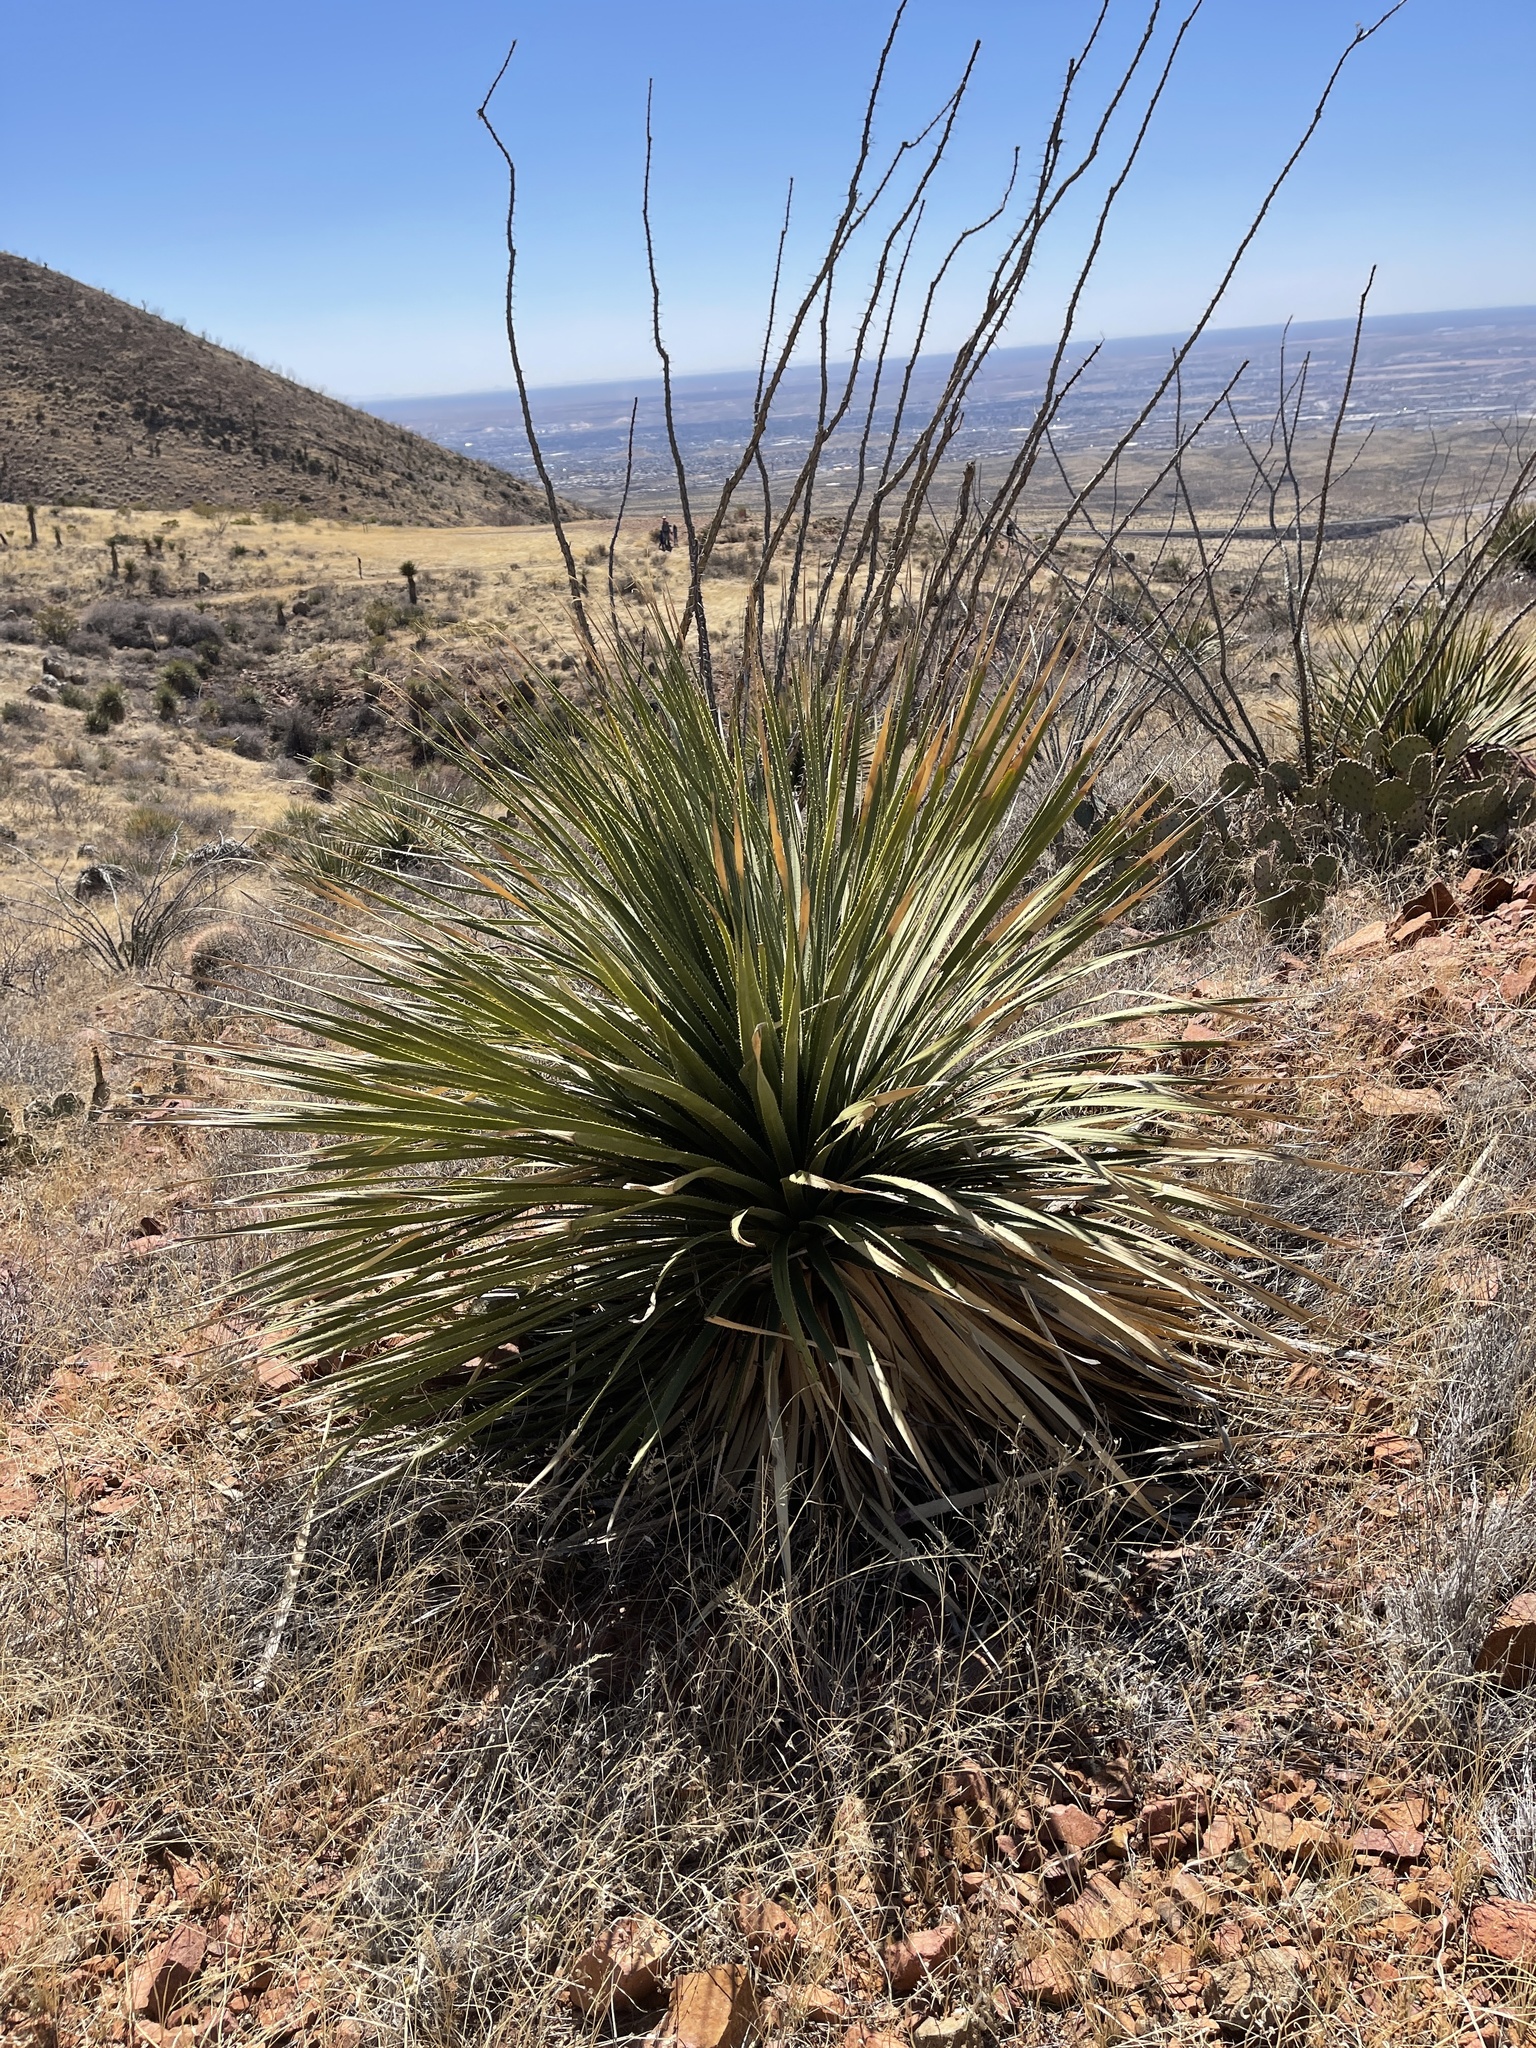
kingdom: Plantae
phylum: Tracheophyta
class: Liliopsida
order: Asparagales
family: Asparagaceae
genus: Dasylirion
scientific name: Dasylirion wheeleri
